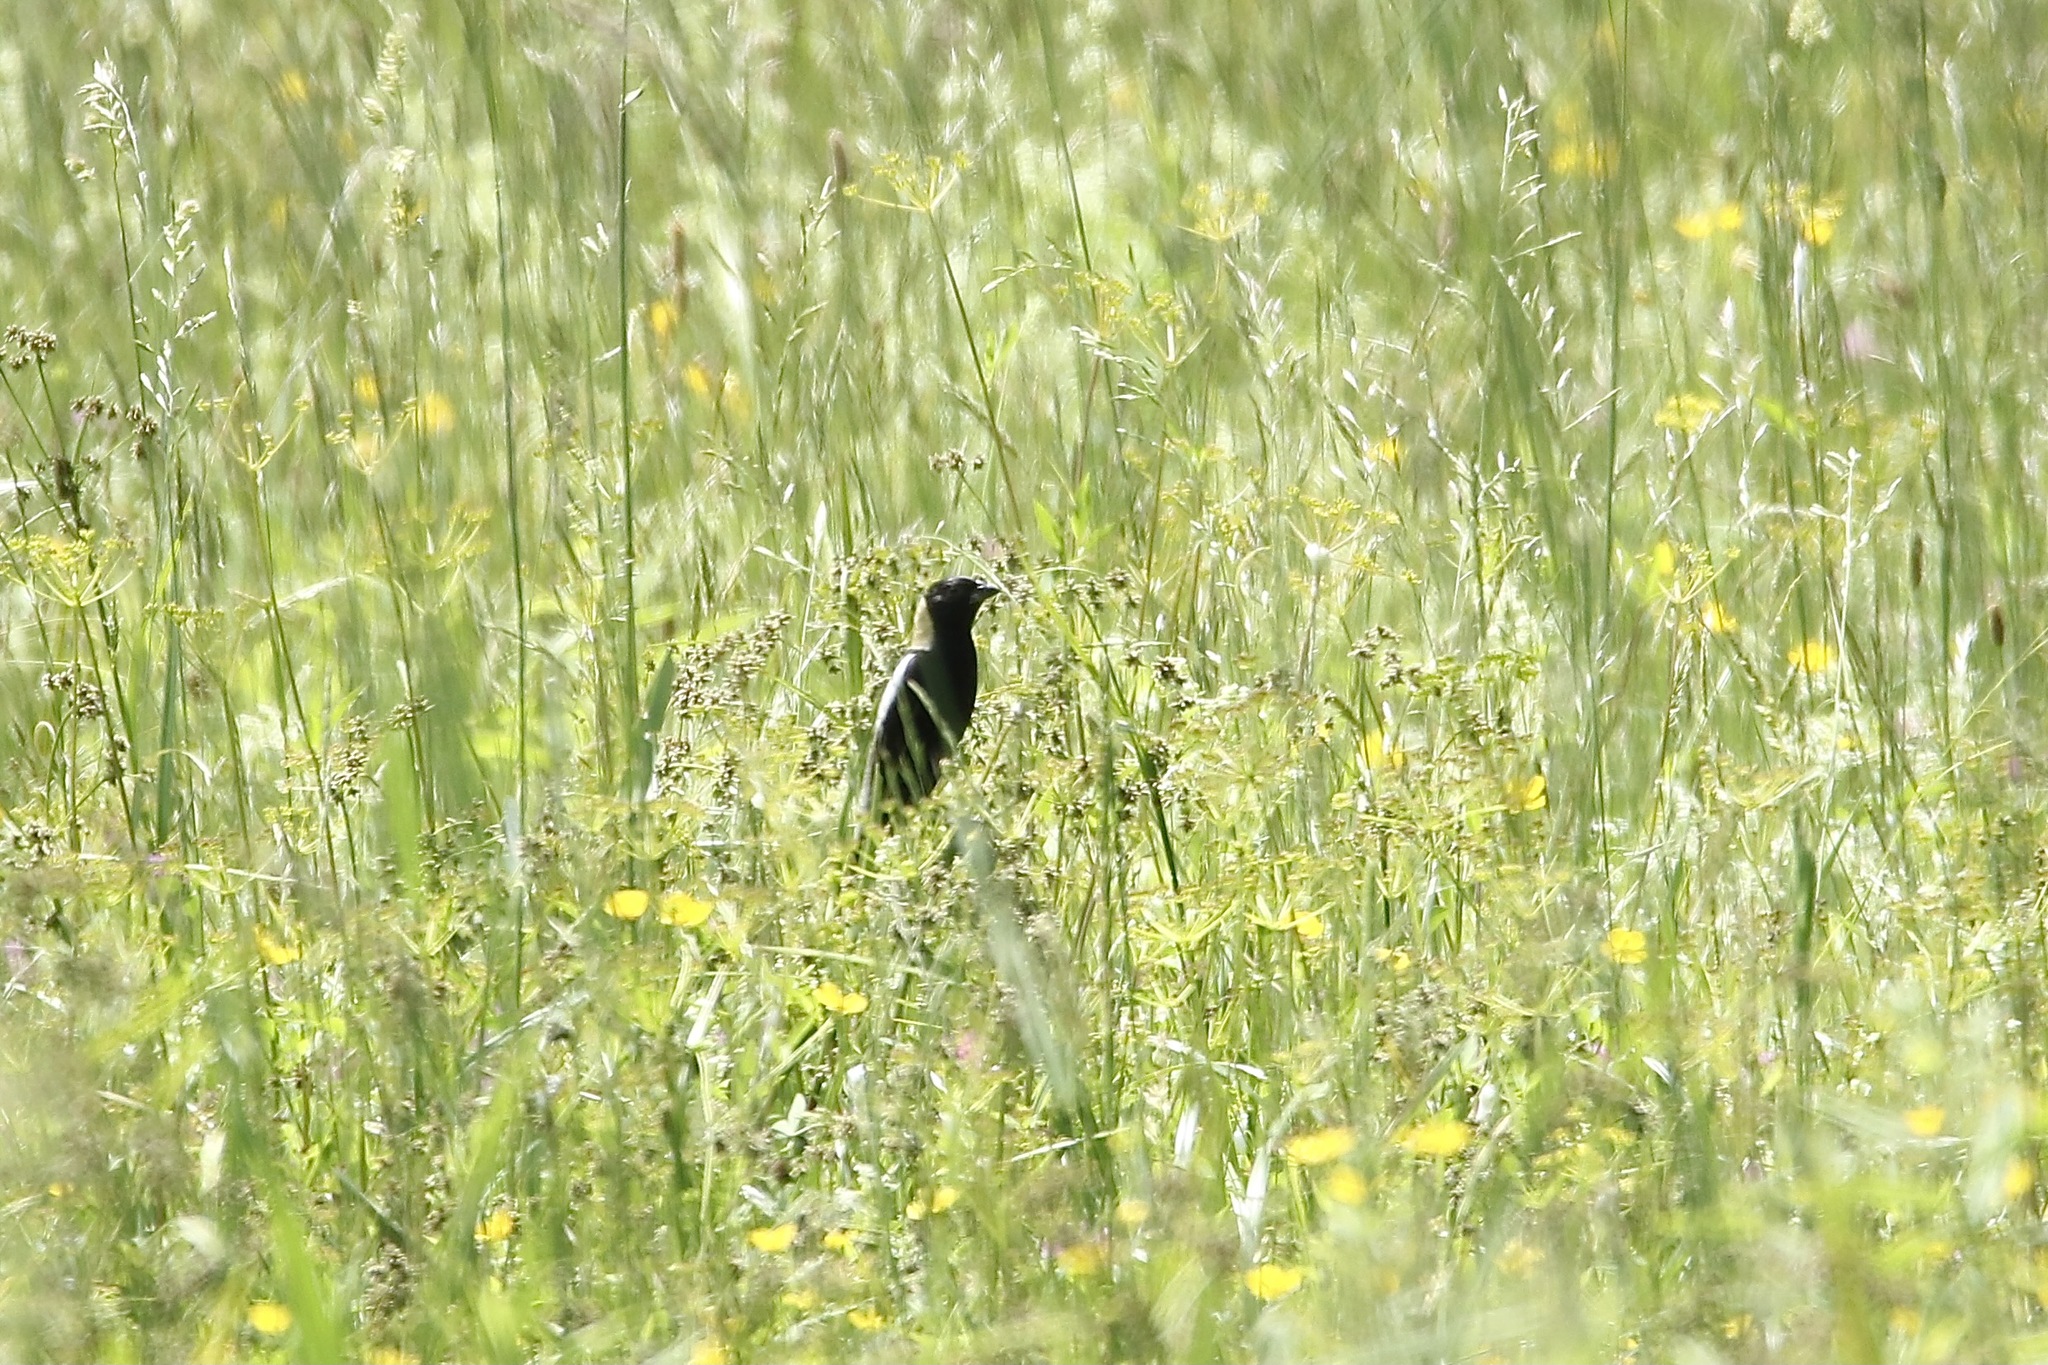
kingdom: Animalia
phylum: Chordata
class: Aves
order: Passeriformes
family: Icteridae
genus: Dolichonyx
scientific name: Dolichonyx oryzivorus
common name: Bobolink
